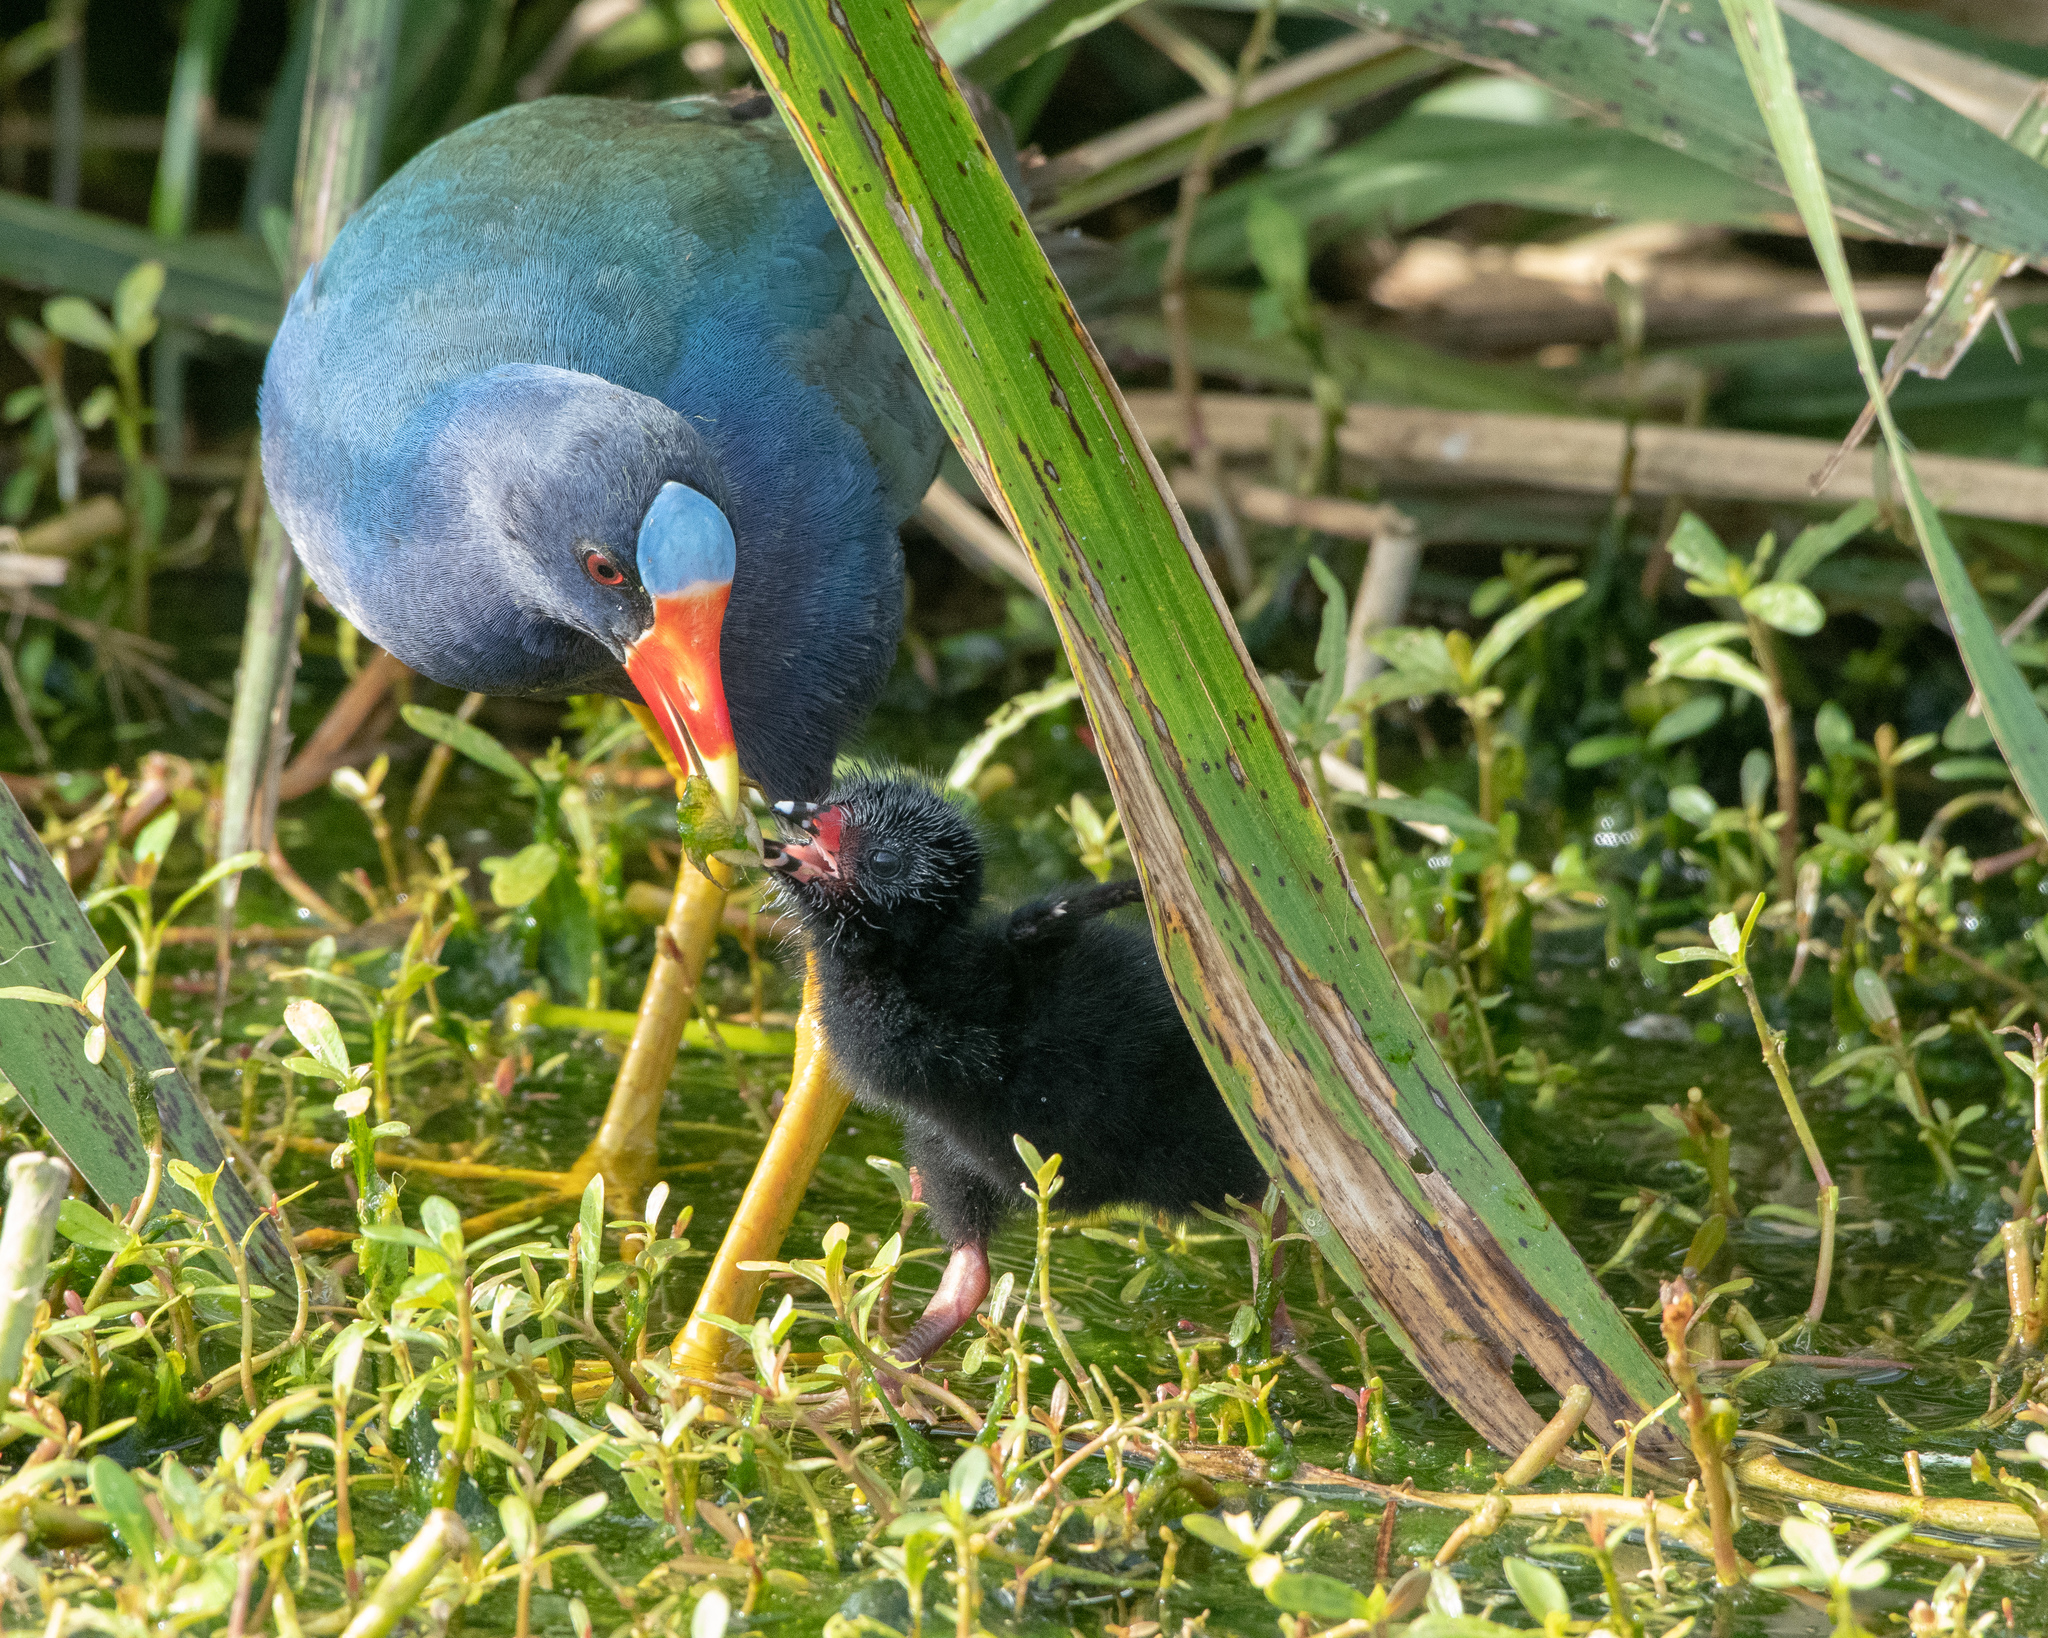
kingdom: Animalia
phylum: Chordata
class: Aves
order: Gruiformes
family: Rallidae
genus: Porphyrio
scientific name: Porphyrio martinica
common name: Purple gallinule
